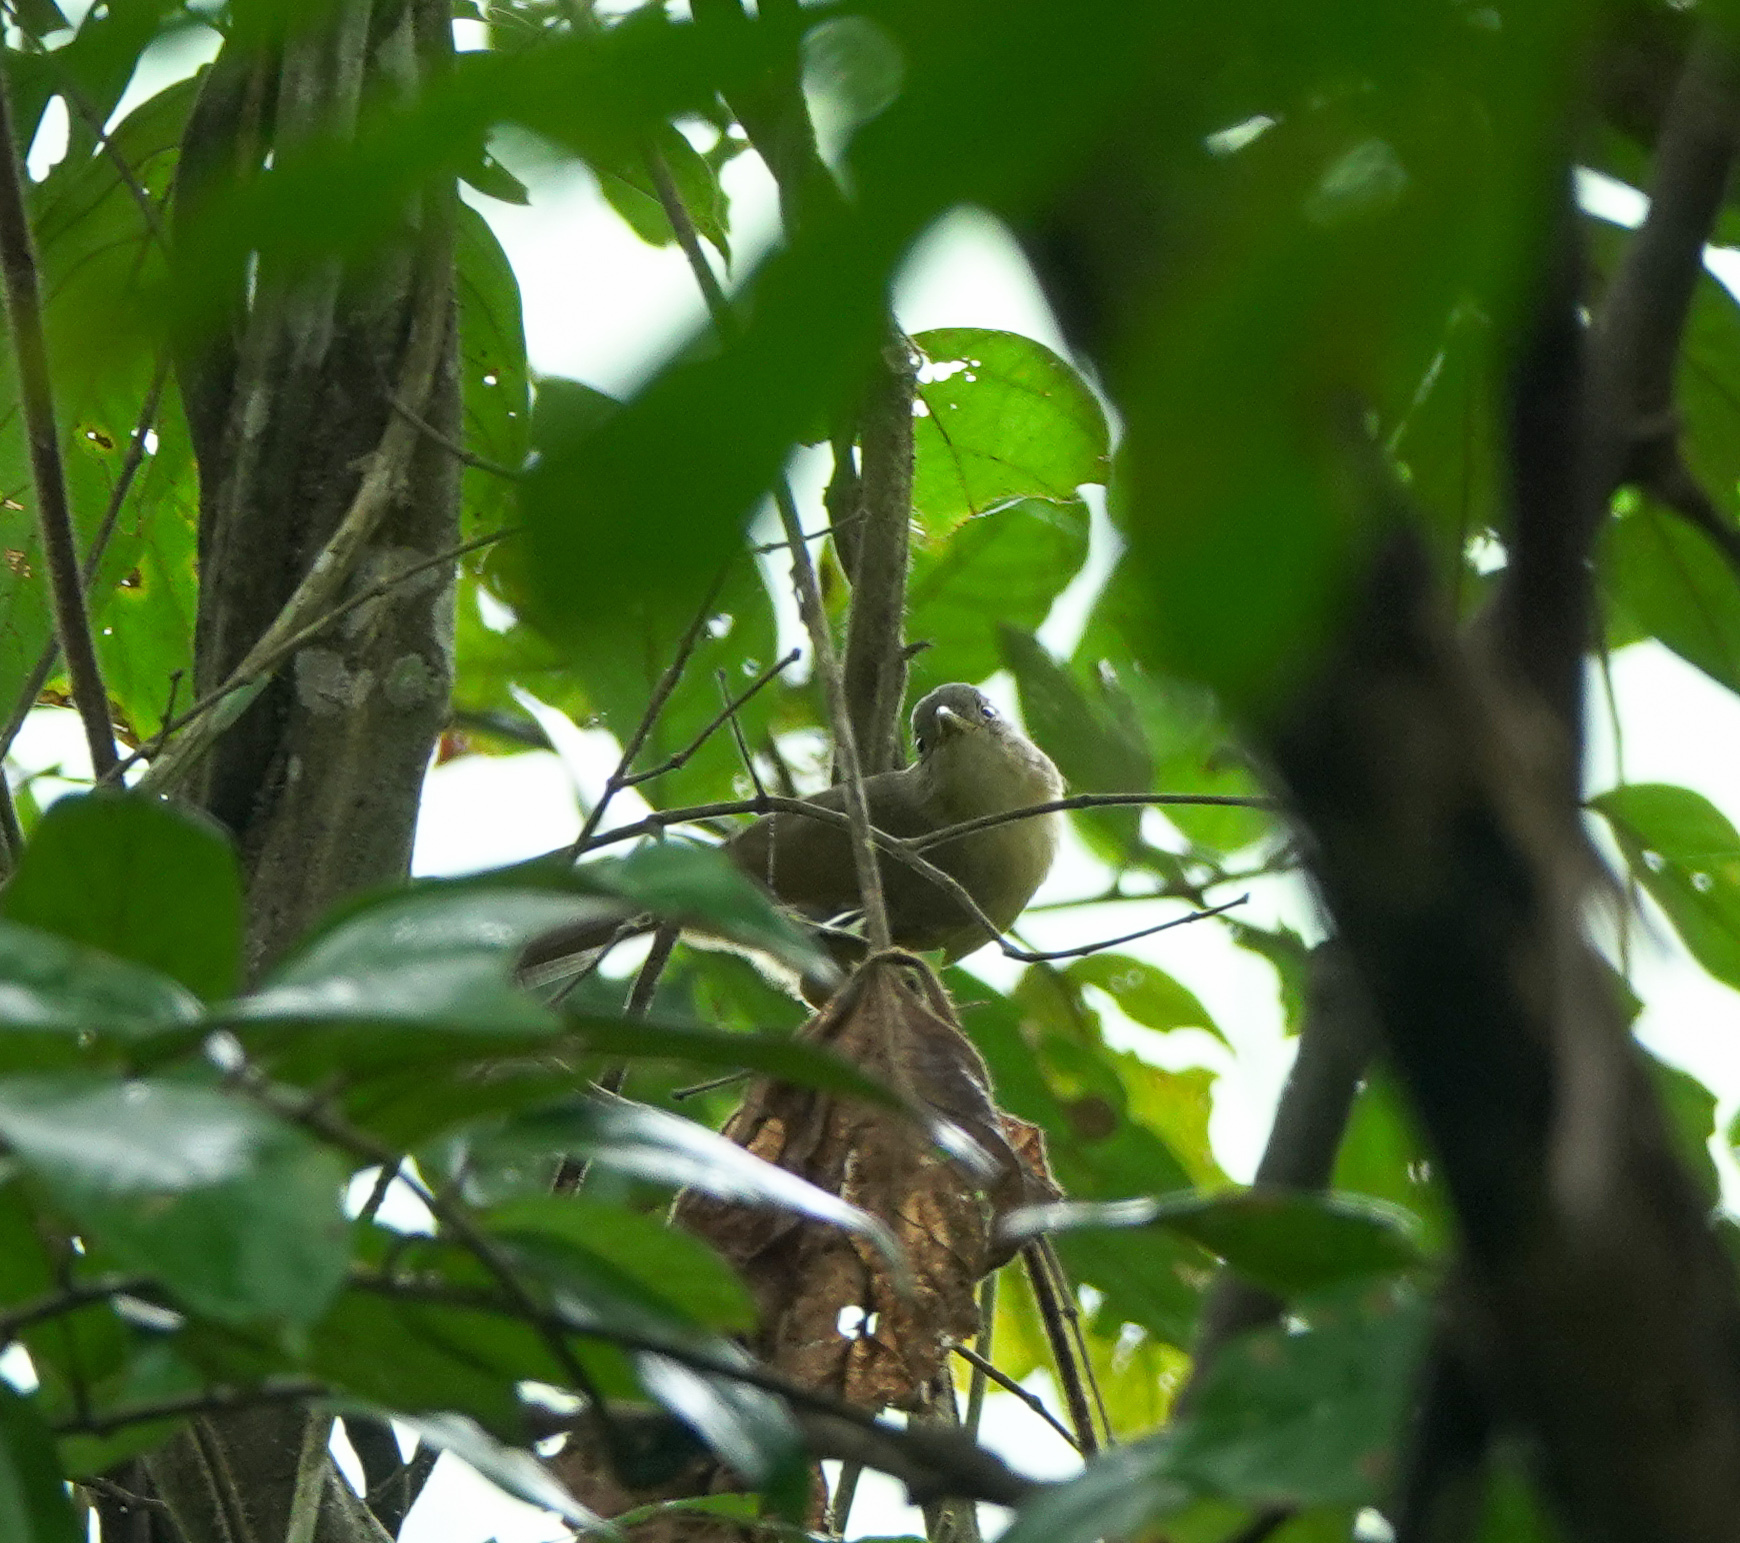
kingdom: Animalia
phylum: Chordata
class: Aves
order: Passeriformes
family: Pellorneidae
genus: Alcippe
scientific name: Alcippe poioicephala
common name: Brown-cheeked fulvetta
